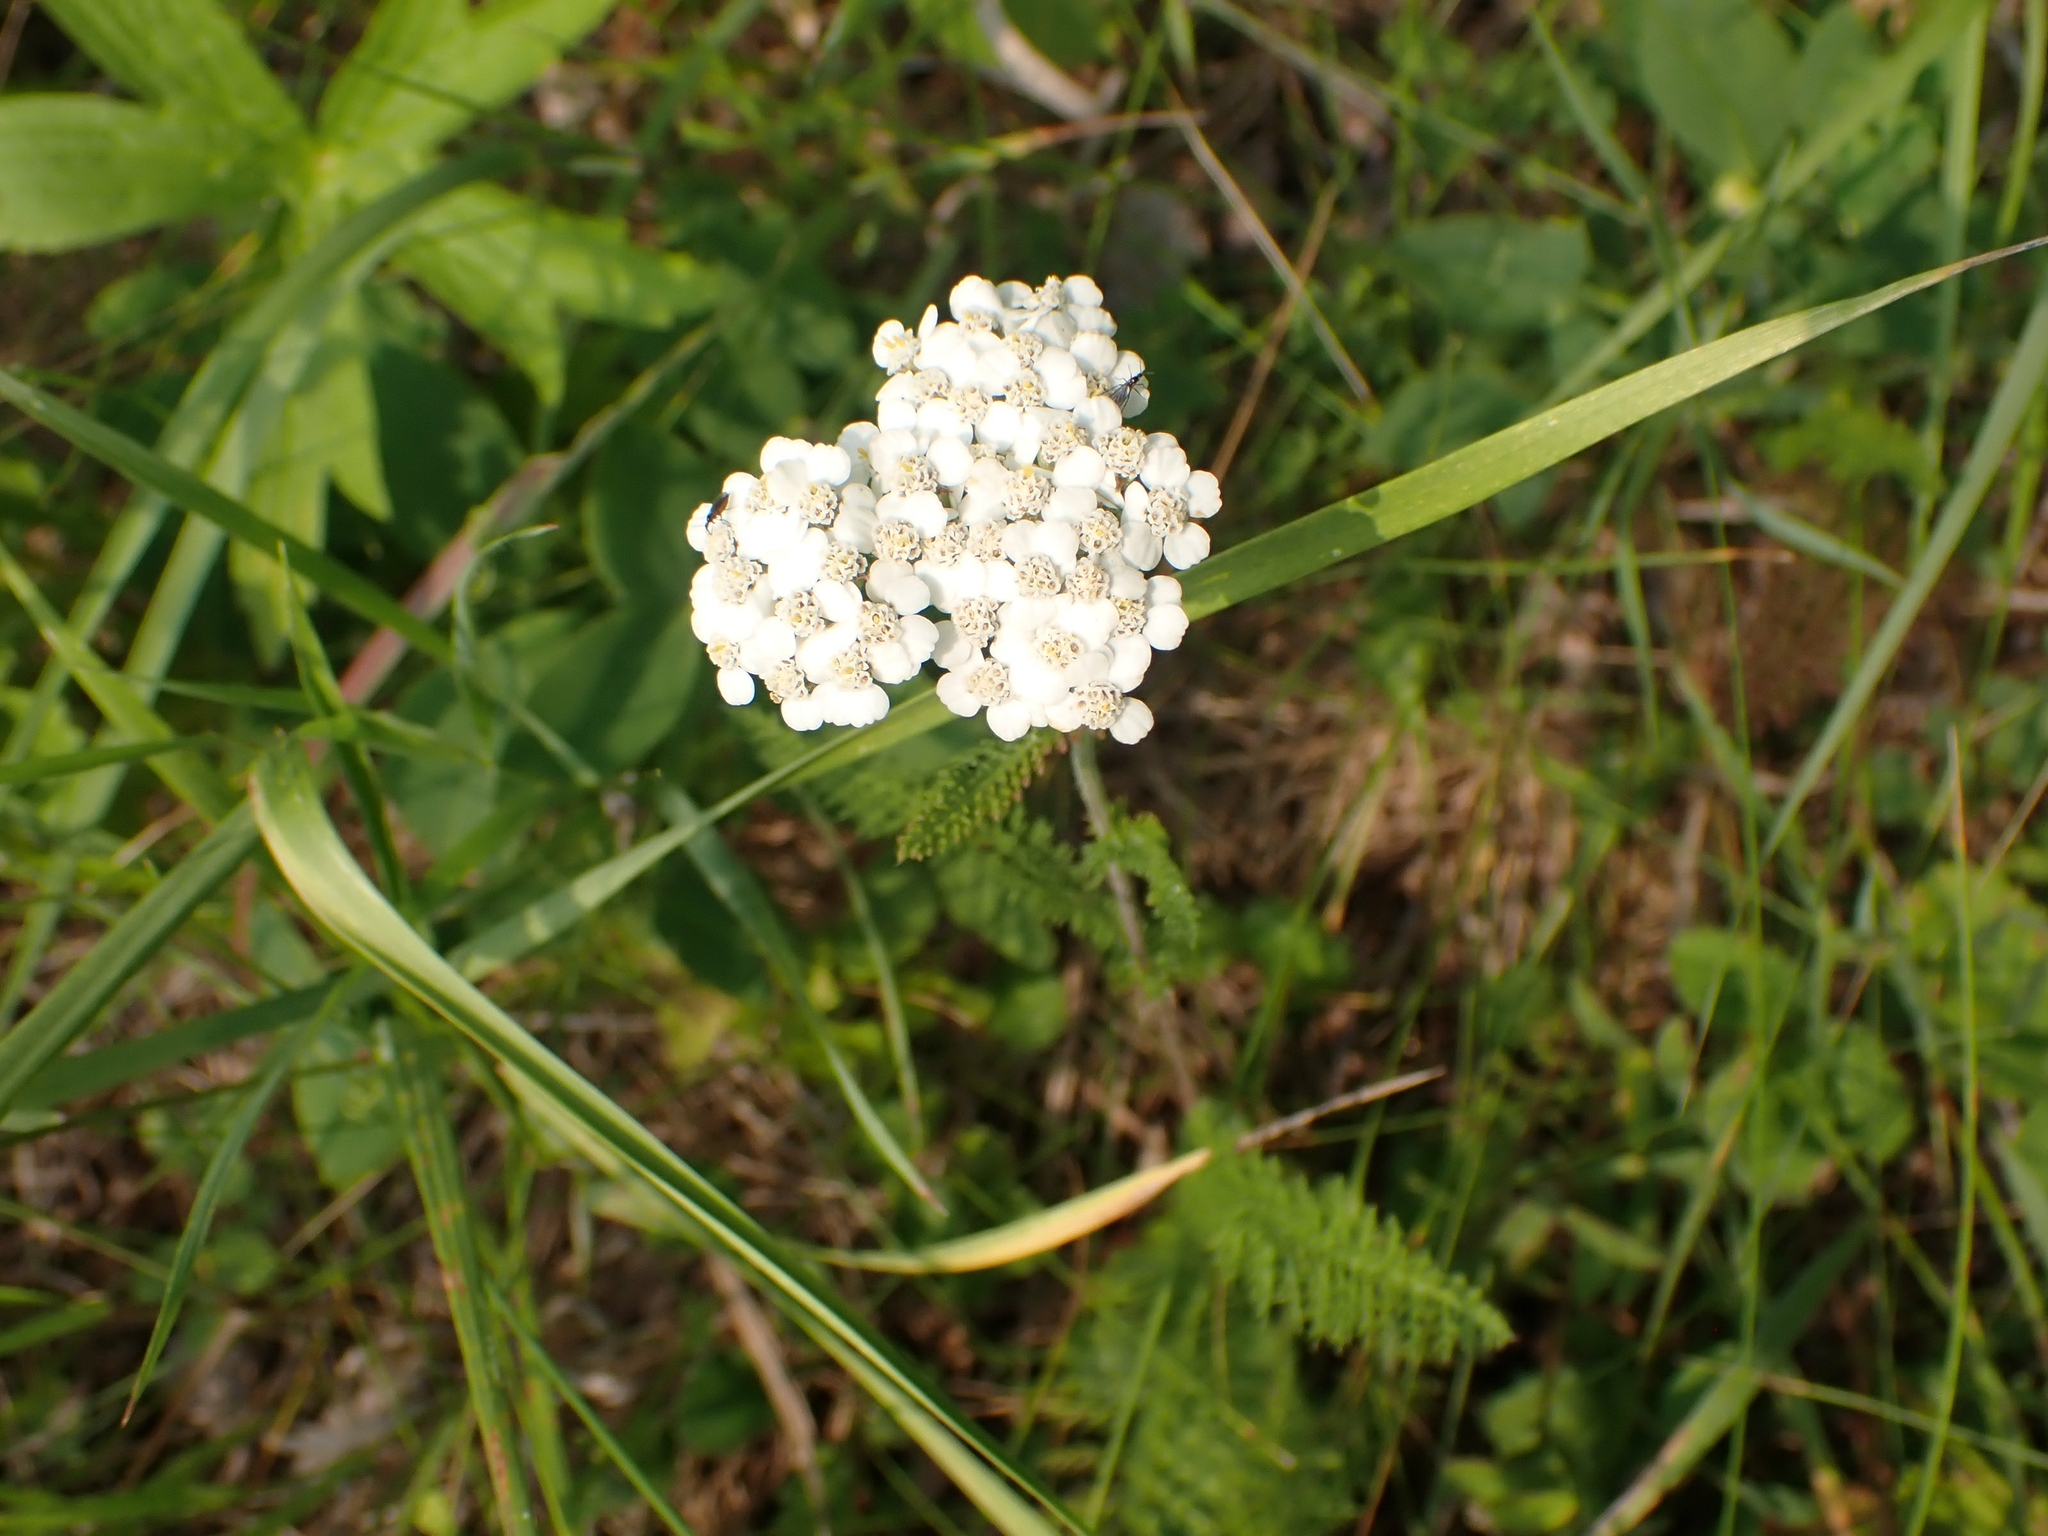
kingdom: Plantae
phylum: Tracheophyta
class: Magnoliopsida
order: Asterales
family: Asteraceae
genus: Achillea
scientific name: Achillea millefolium
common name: Yarrow
